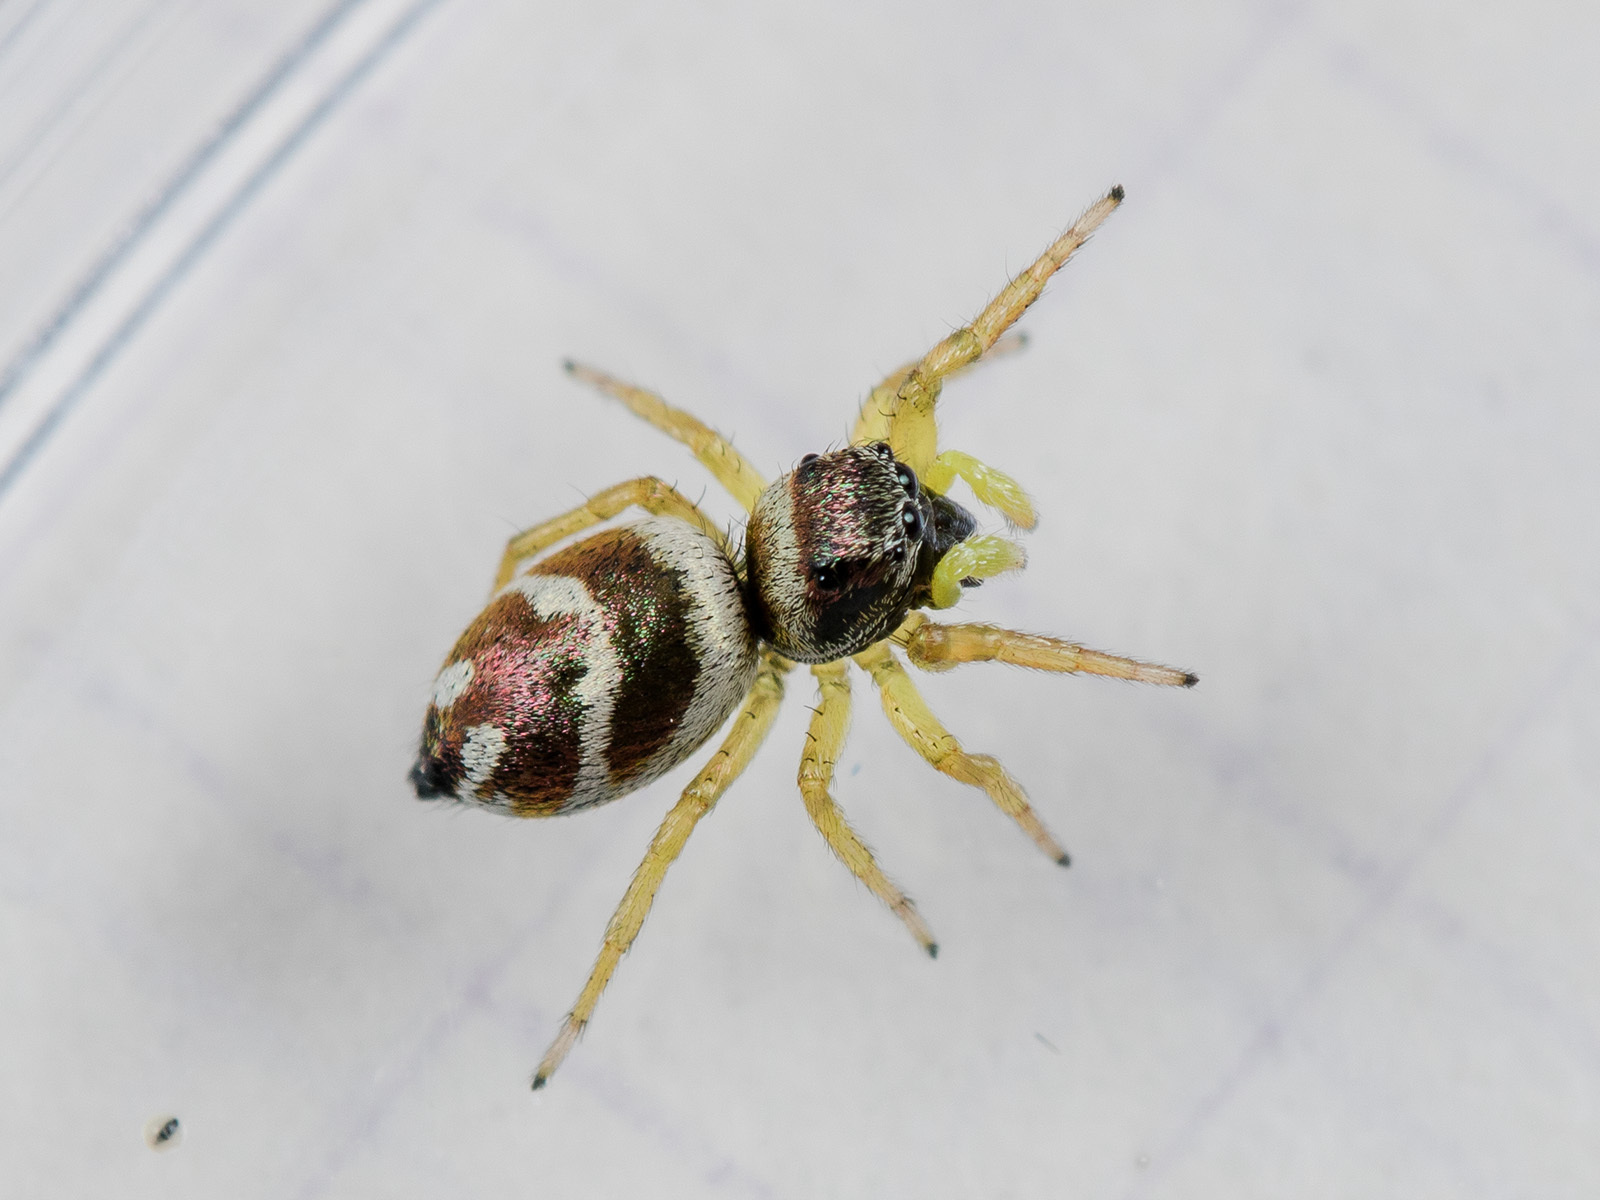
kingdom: Animalia
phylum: Arthropoda
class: Arachnida
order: Araneae
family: Salticidae
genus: Heliophanus
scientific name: Heliophanus chovdensis
